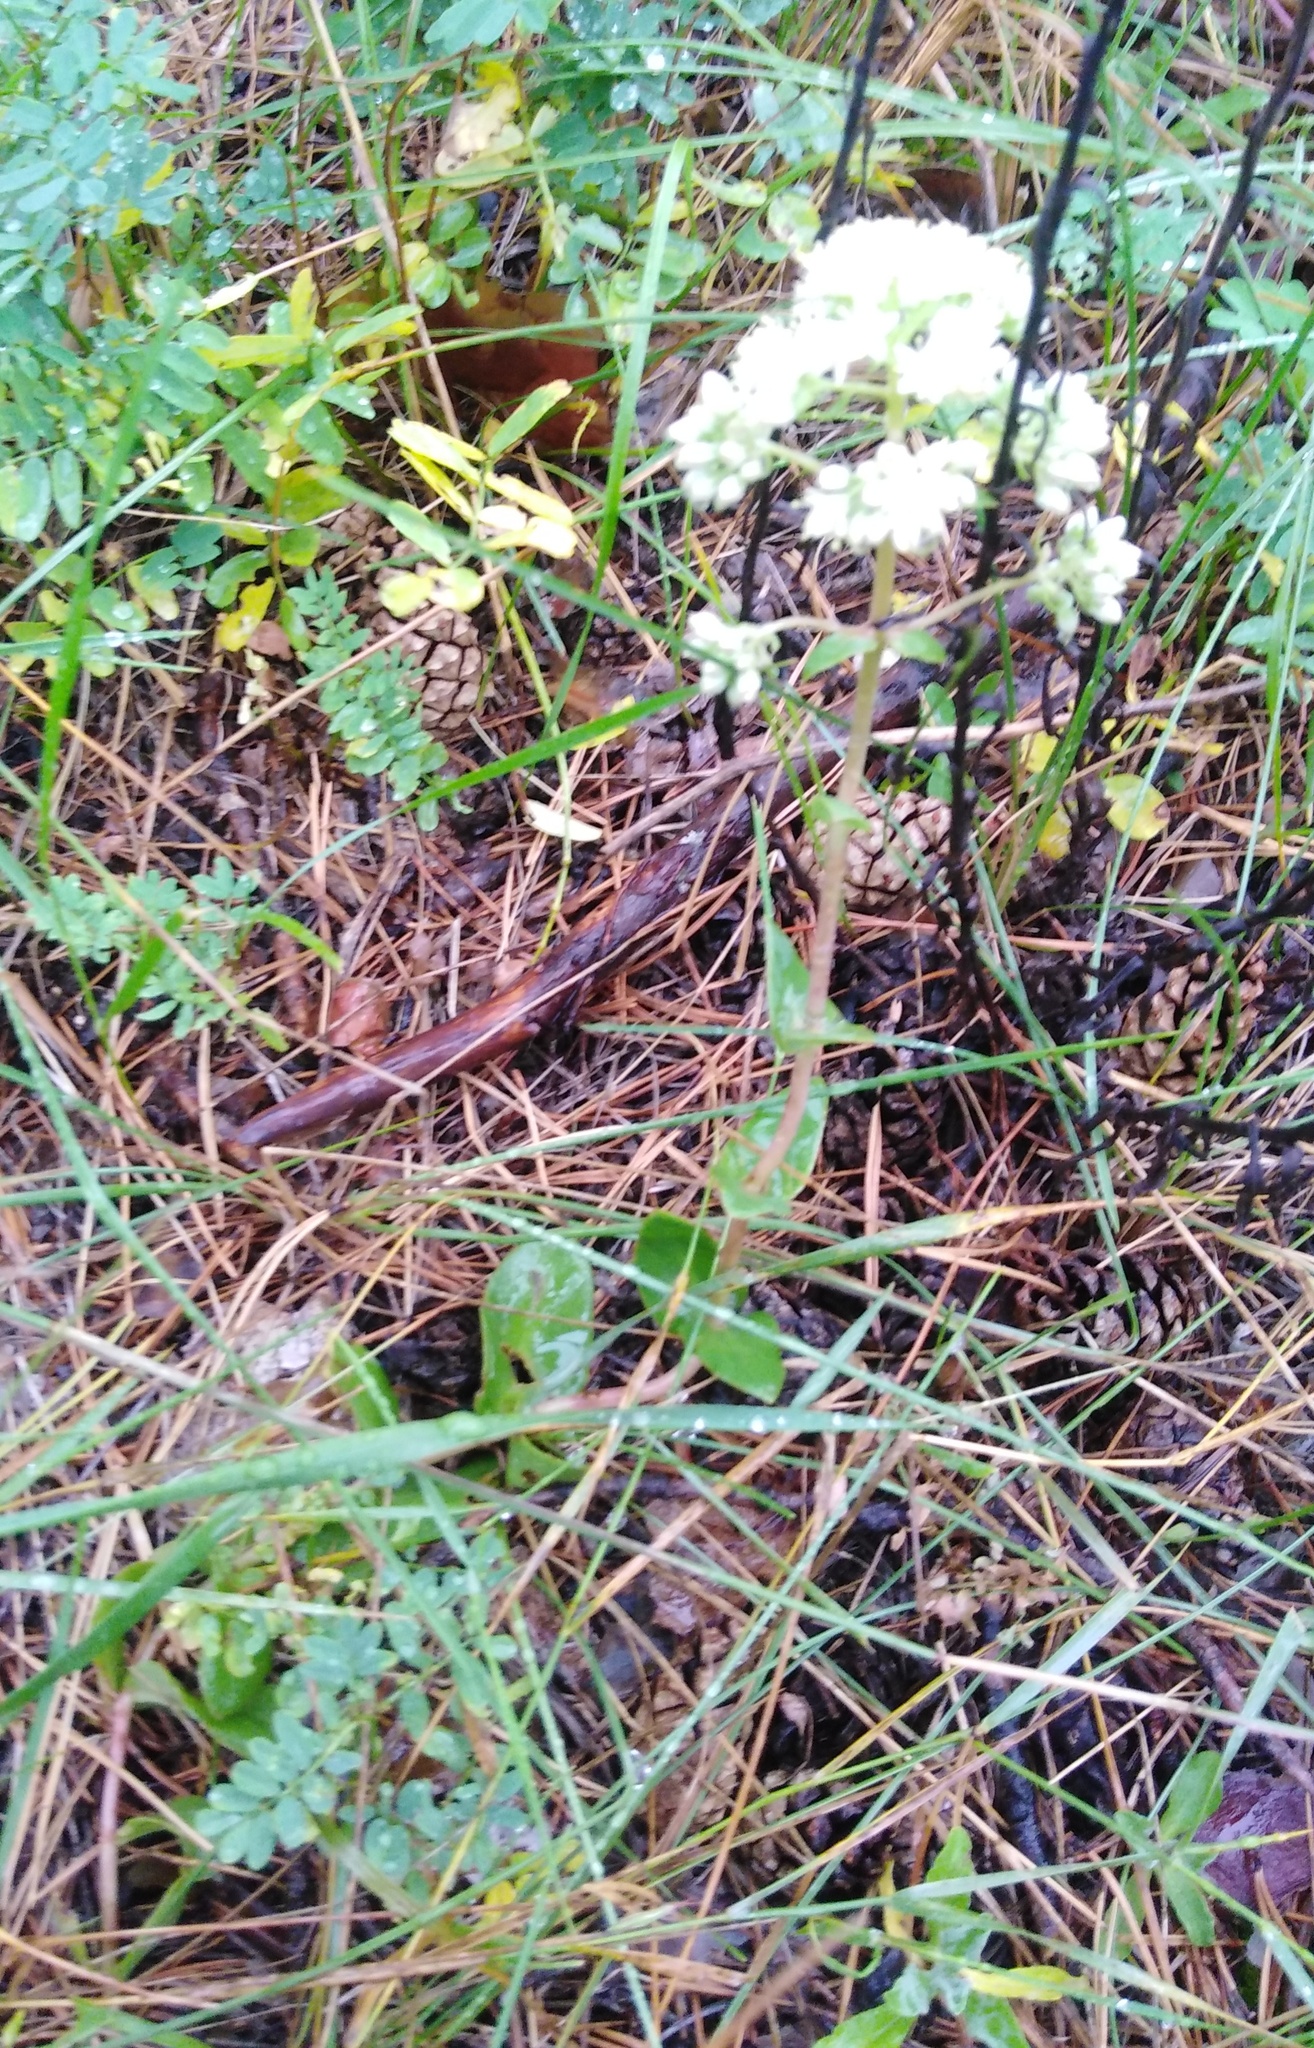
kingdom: Plantae
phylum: Tracheophyta
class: Magnoliopsida
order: Saxifragales
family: Crassulaceae
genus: Hylotelephium
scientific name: Hylotelephium maximum
